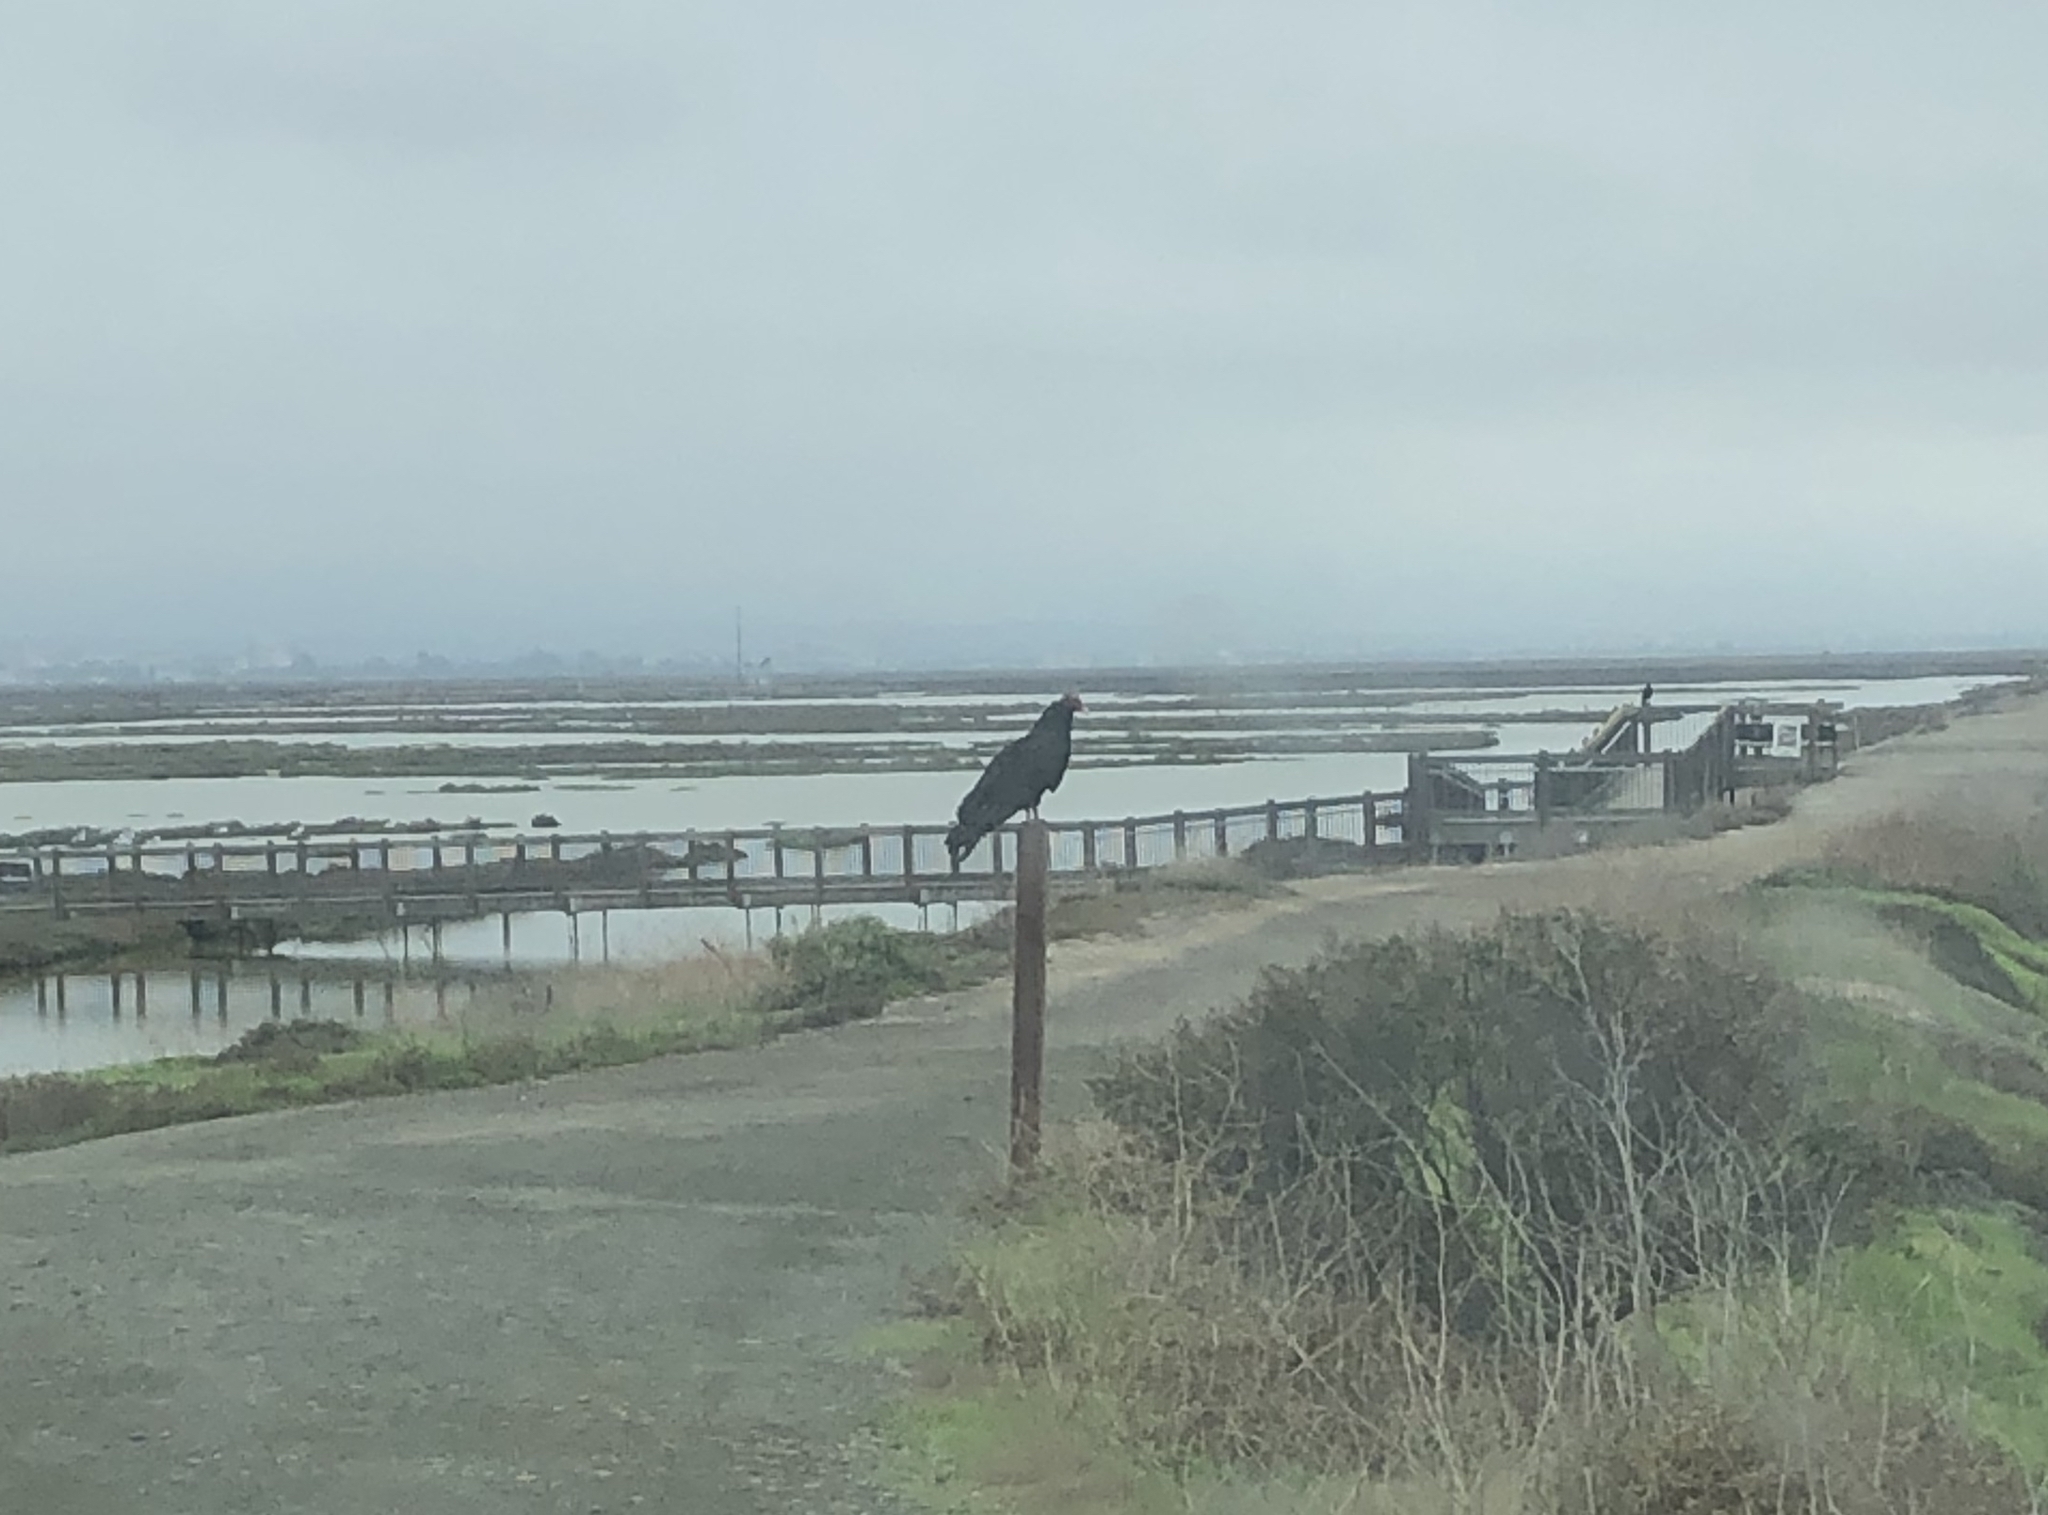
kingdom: Animalia
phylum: Chordata
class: Aves
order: Accipitriformes
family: Cathartidae
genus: Cathartes
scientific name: Cathartes aura
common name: Turkey vulture
